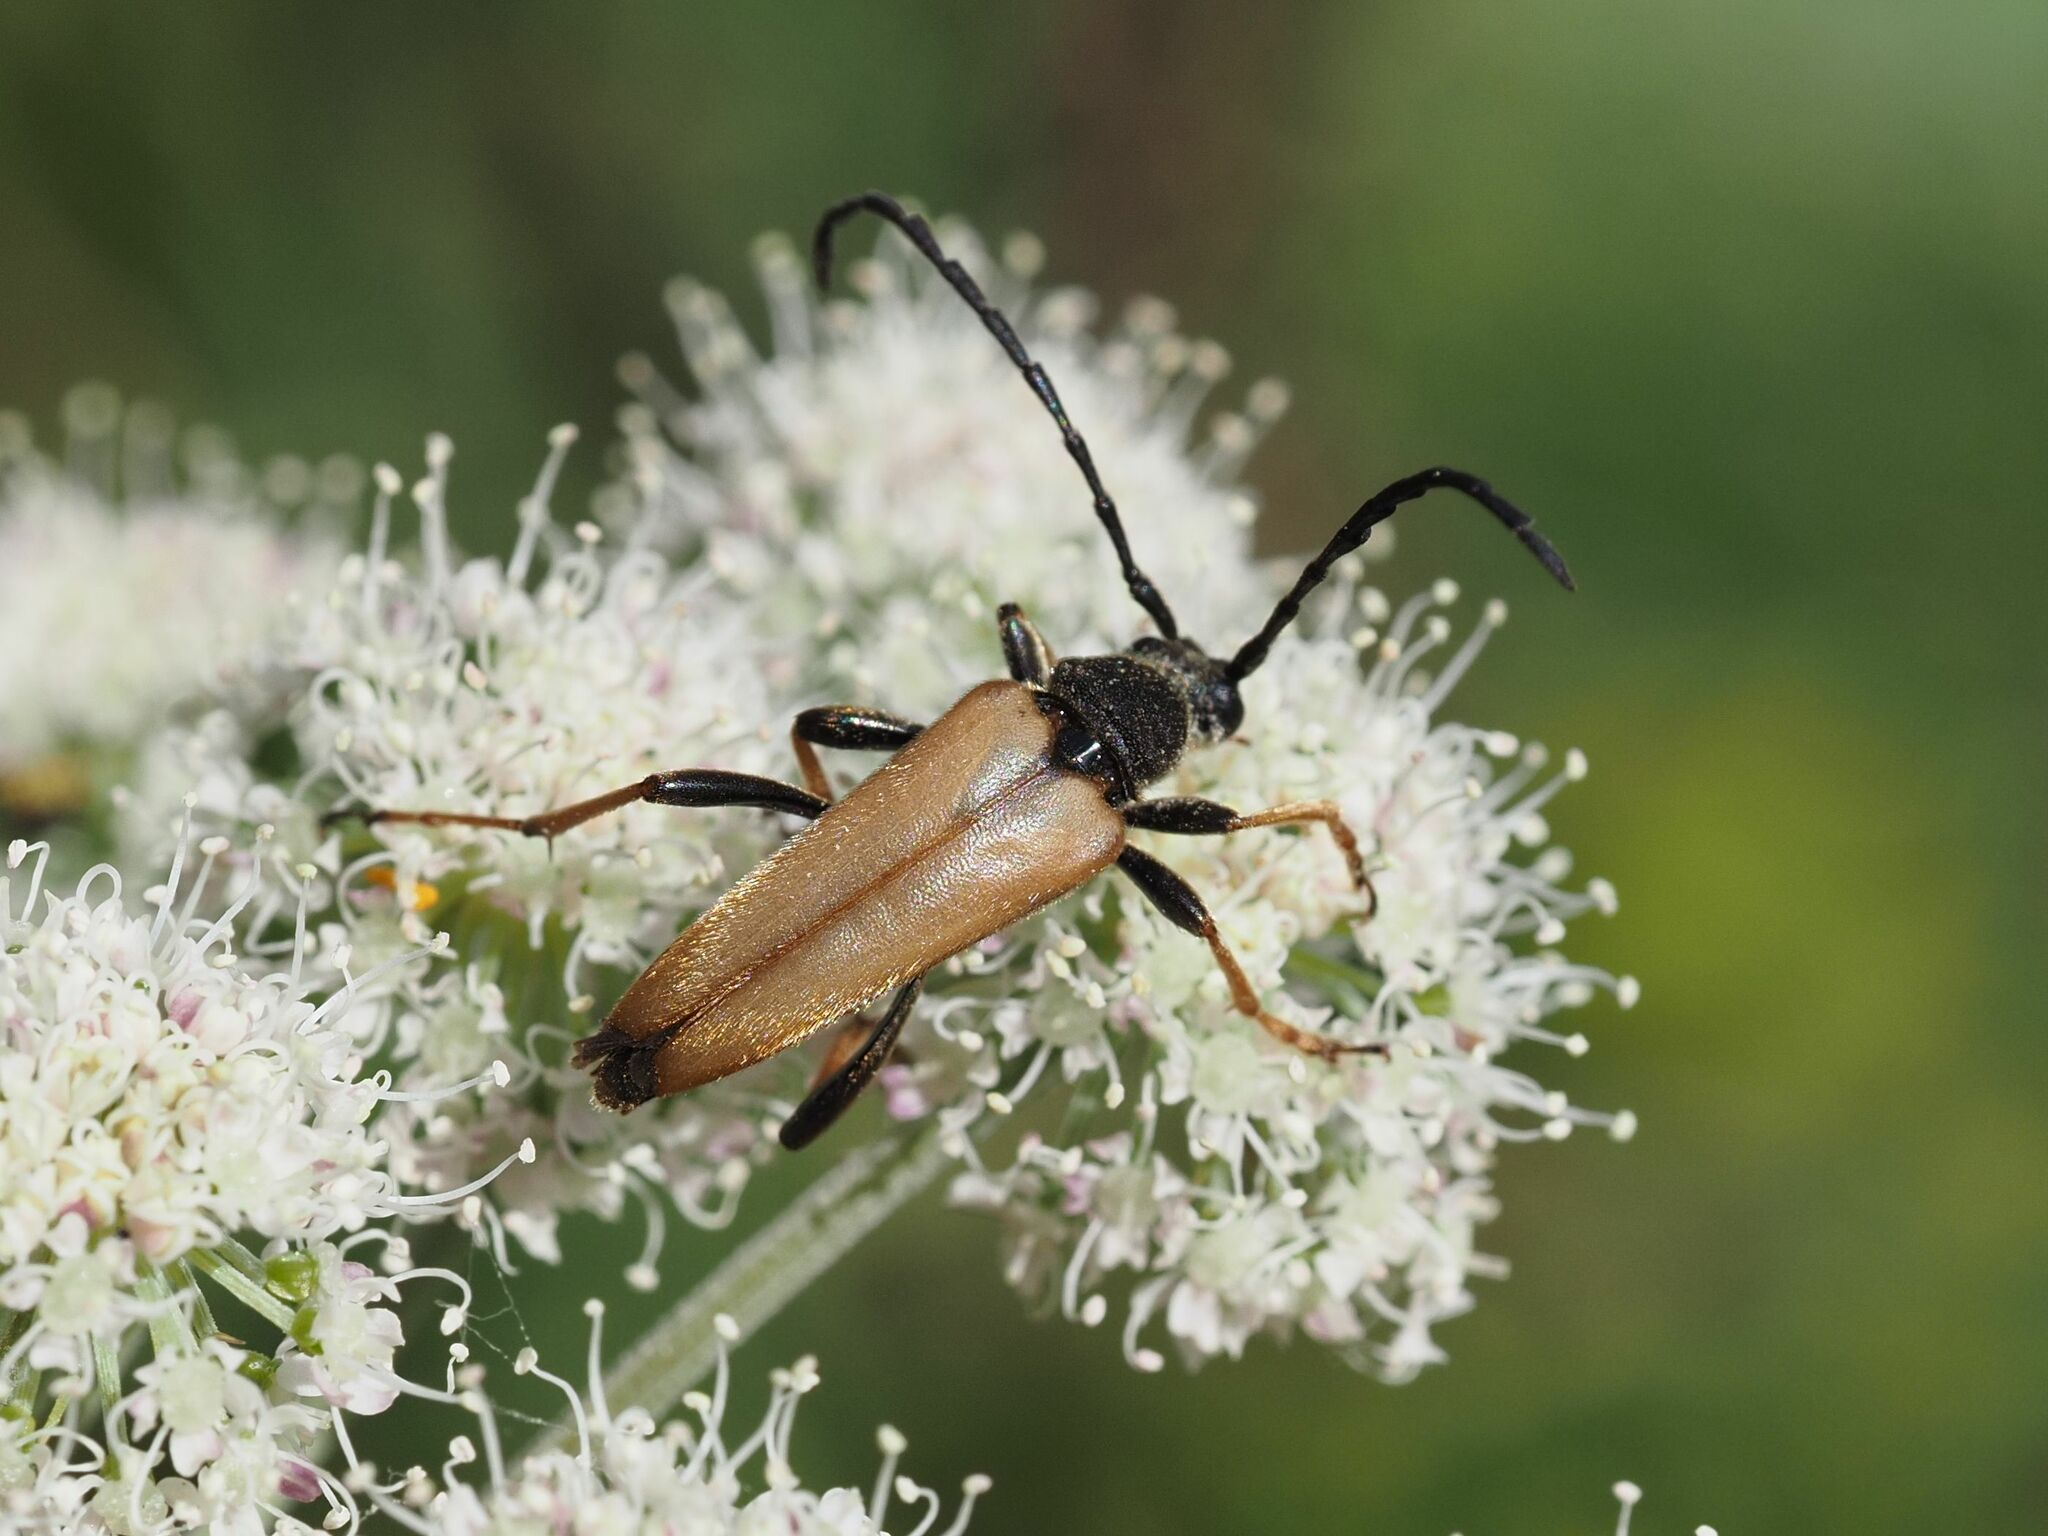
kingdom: Animalia
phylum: Arthropoda
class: Insecta
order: Coleoptera
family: Cerambycidae
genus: Stictoleptura
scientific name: Stictoleptura rubra
